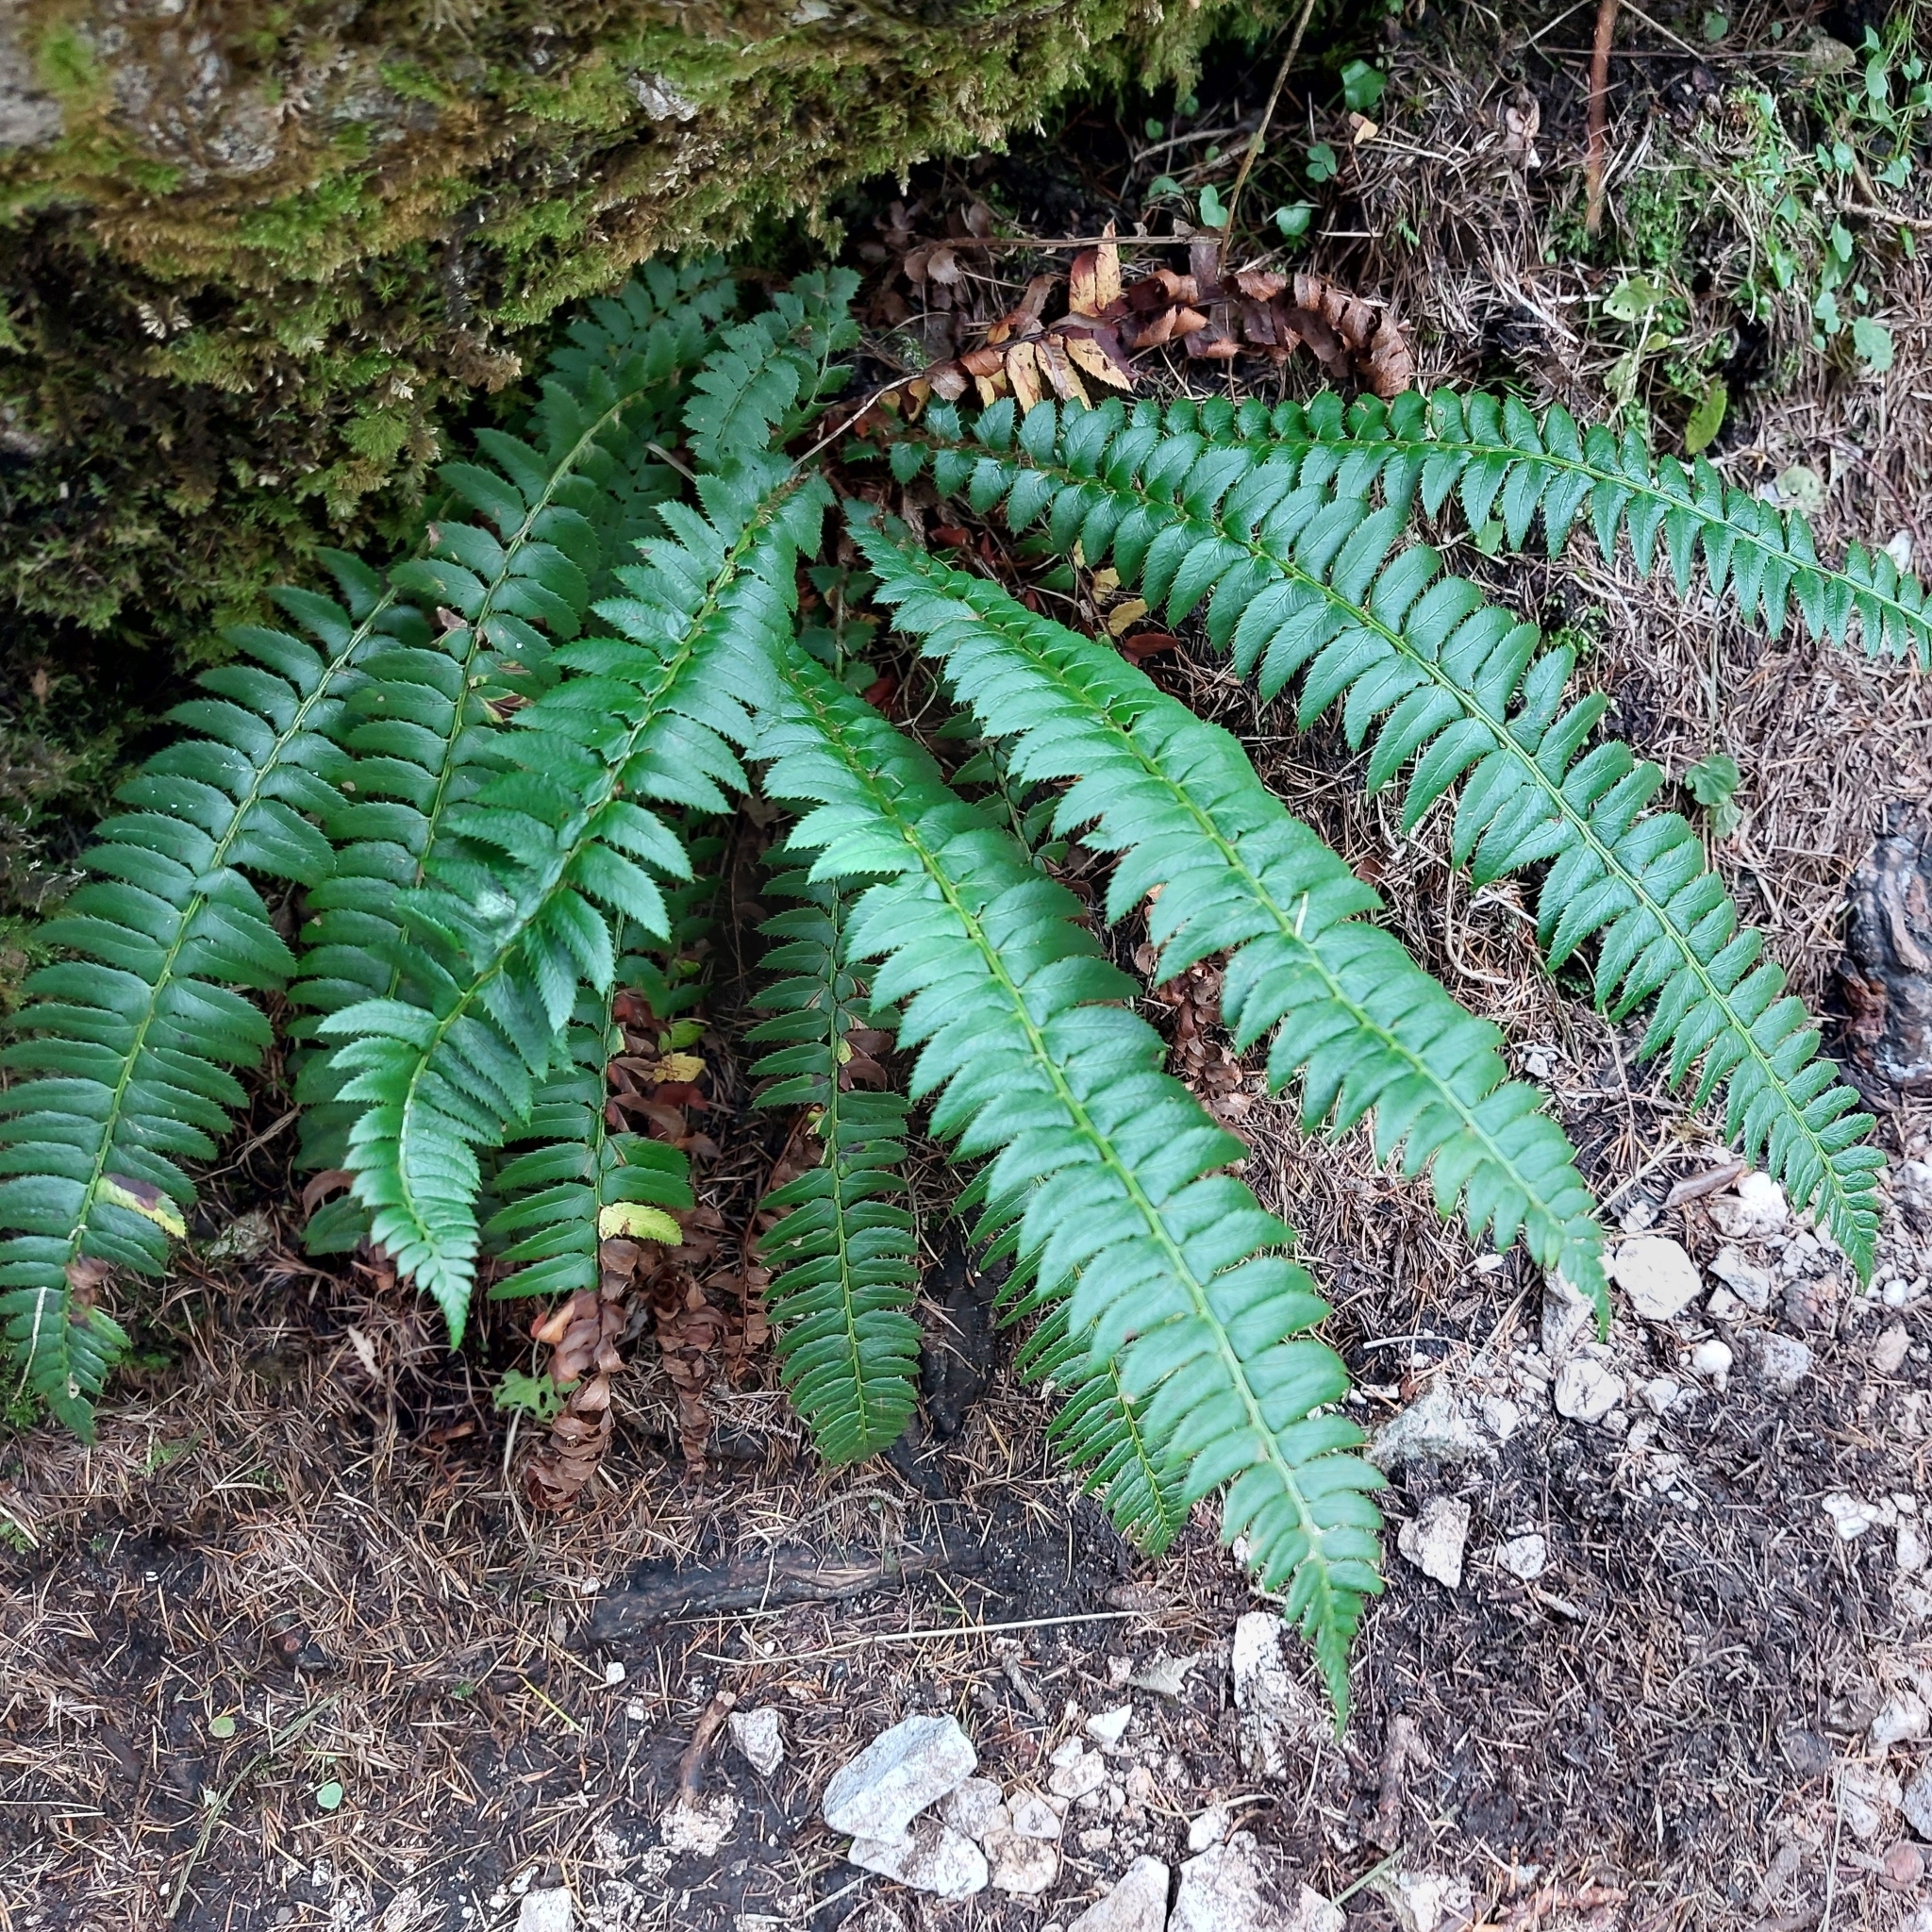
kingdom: Plantae
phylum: Tracheophyta
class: Polypodiopsida
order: Polypodiales
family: Dryopteridaceae
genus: Polystichum
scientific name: Polystichum lonchitis
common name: Holly fern
